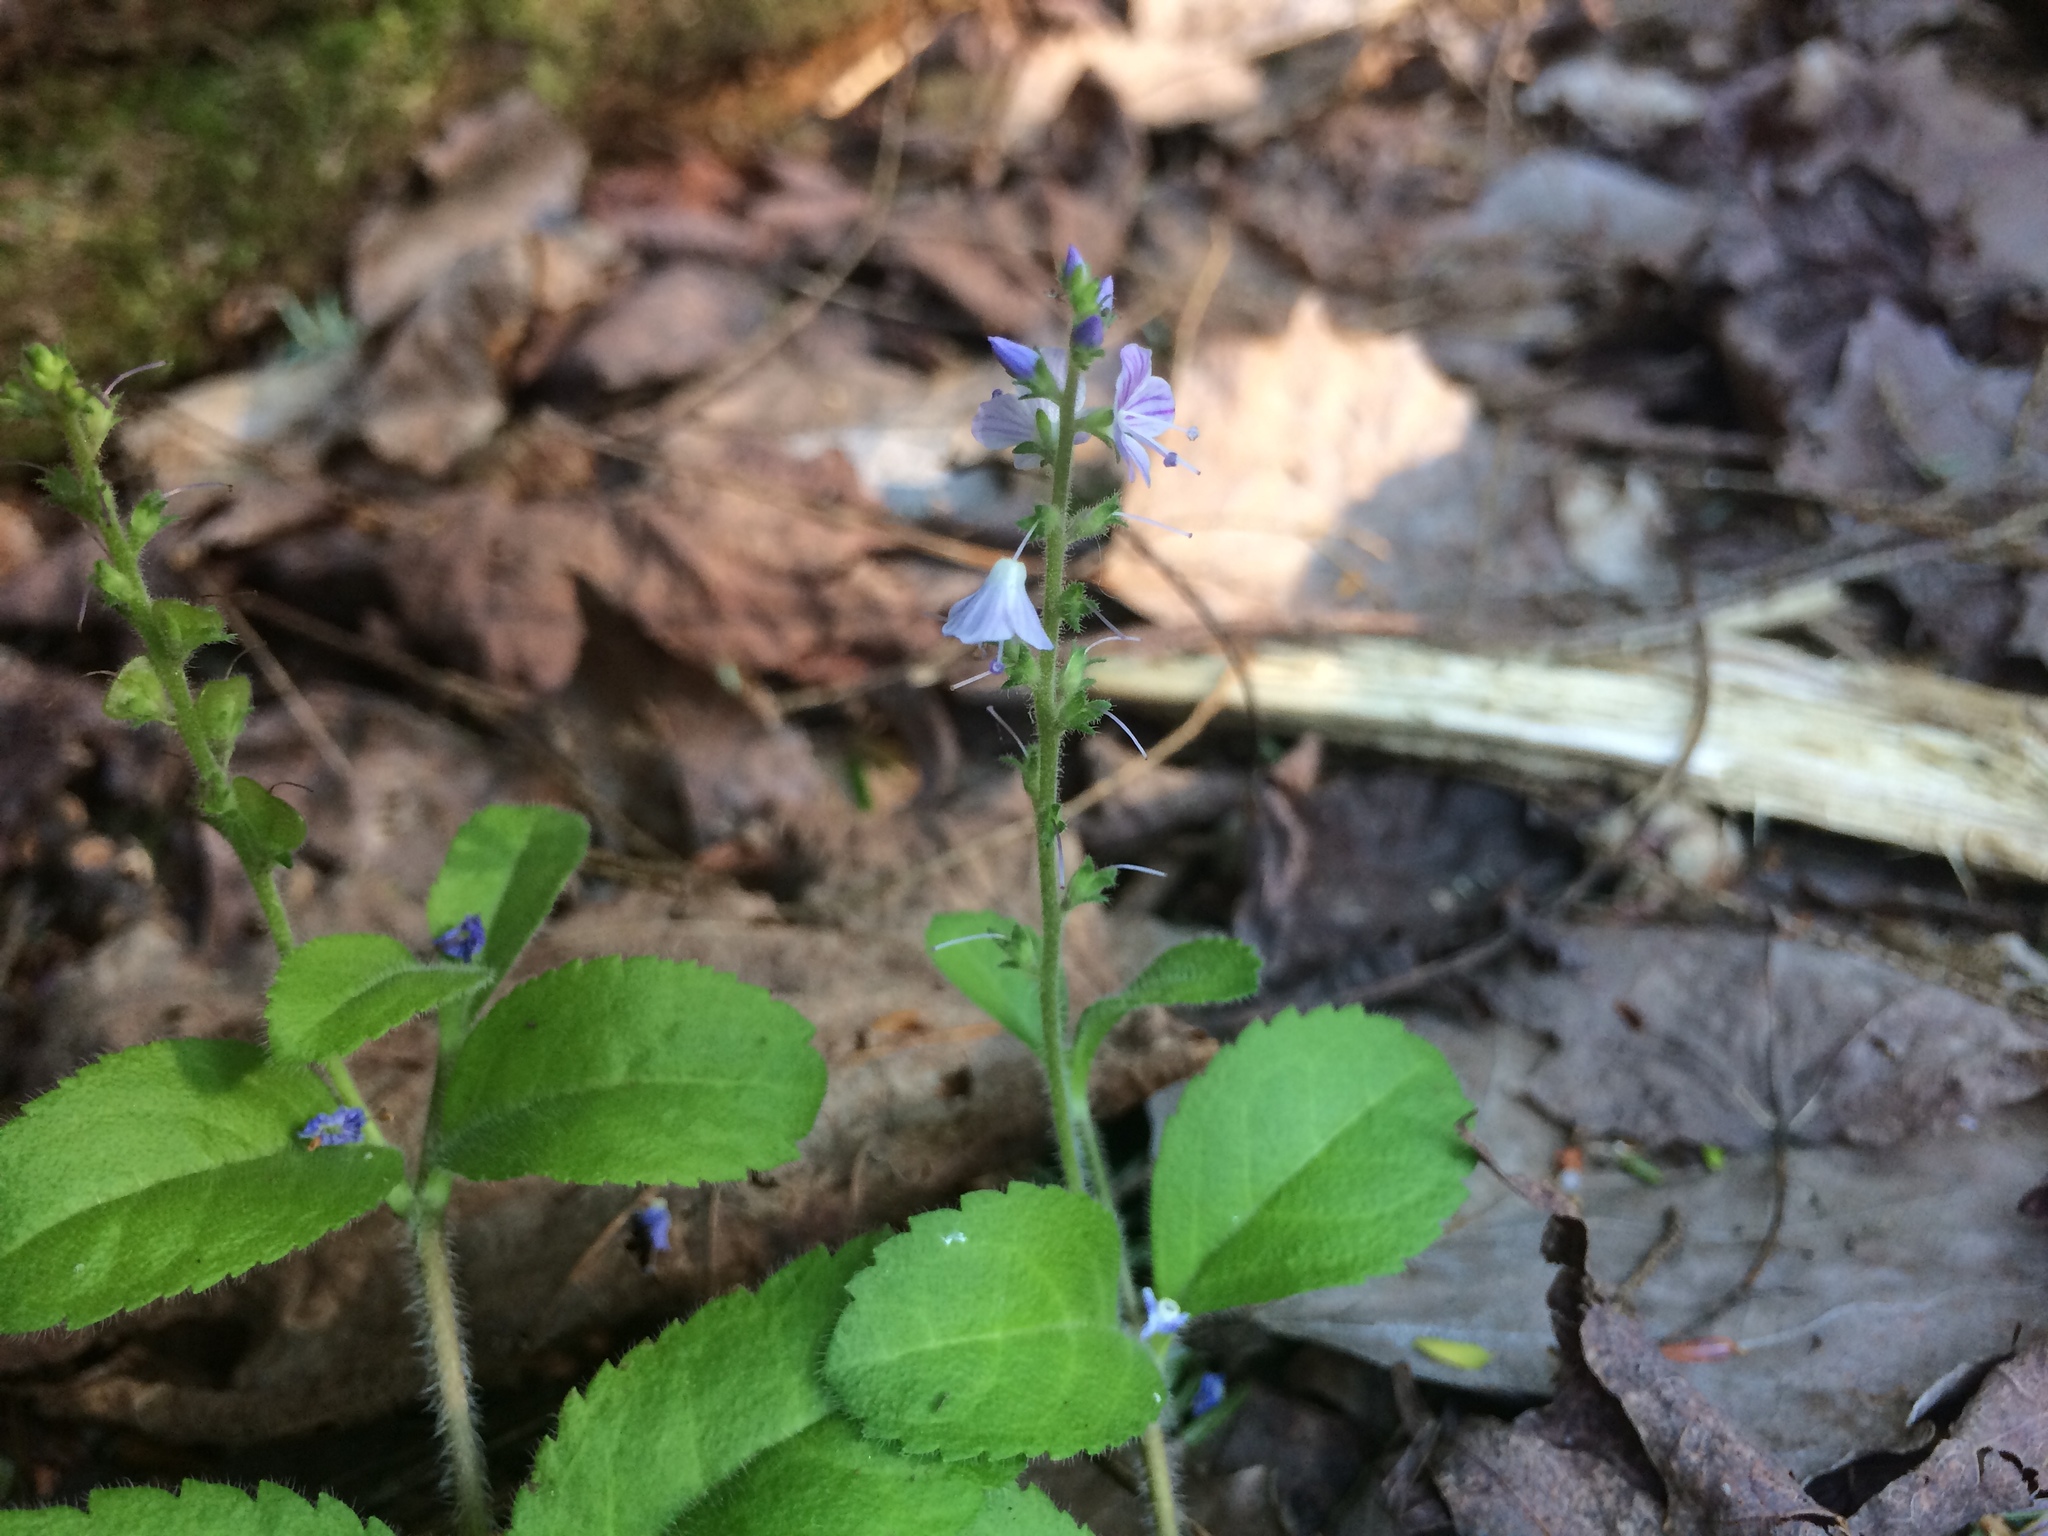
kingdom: Plantae
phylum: Tracheophyta
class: Magnoliopsida
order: Lamiales
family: Plantaginaceae
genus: Veronica
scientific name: Veronica officinalis
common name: Common speedwell
